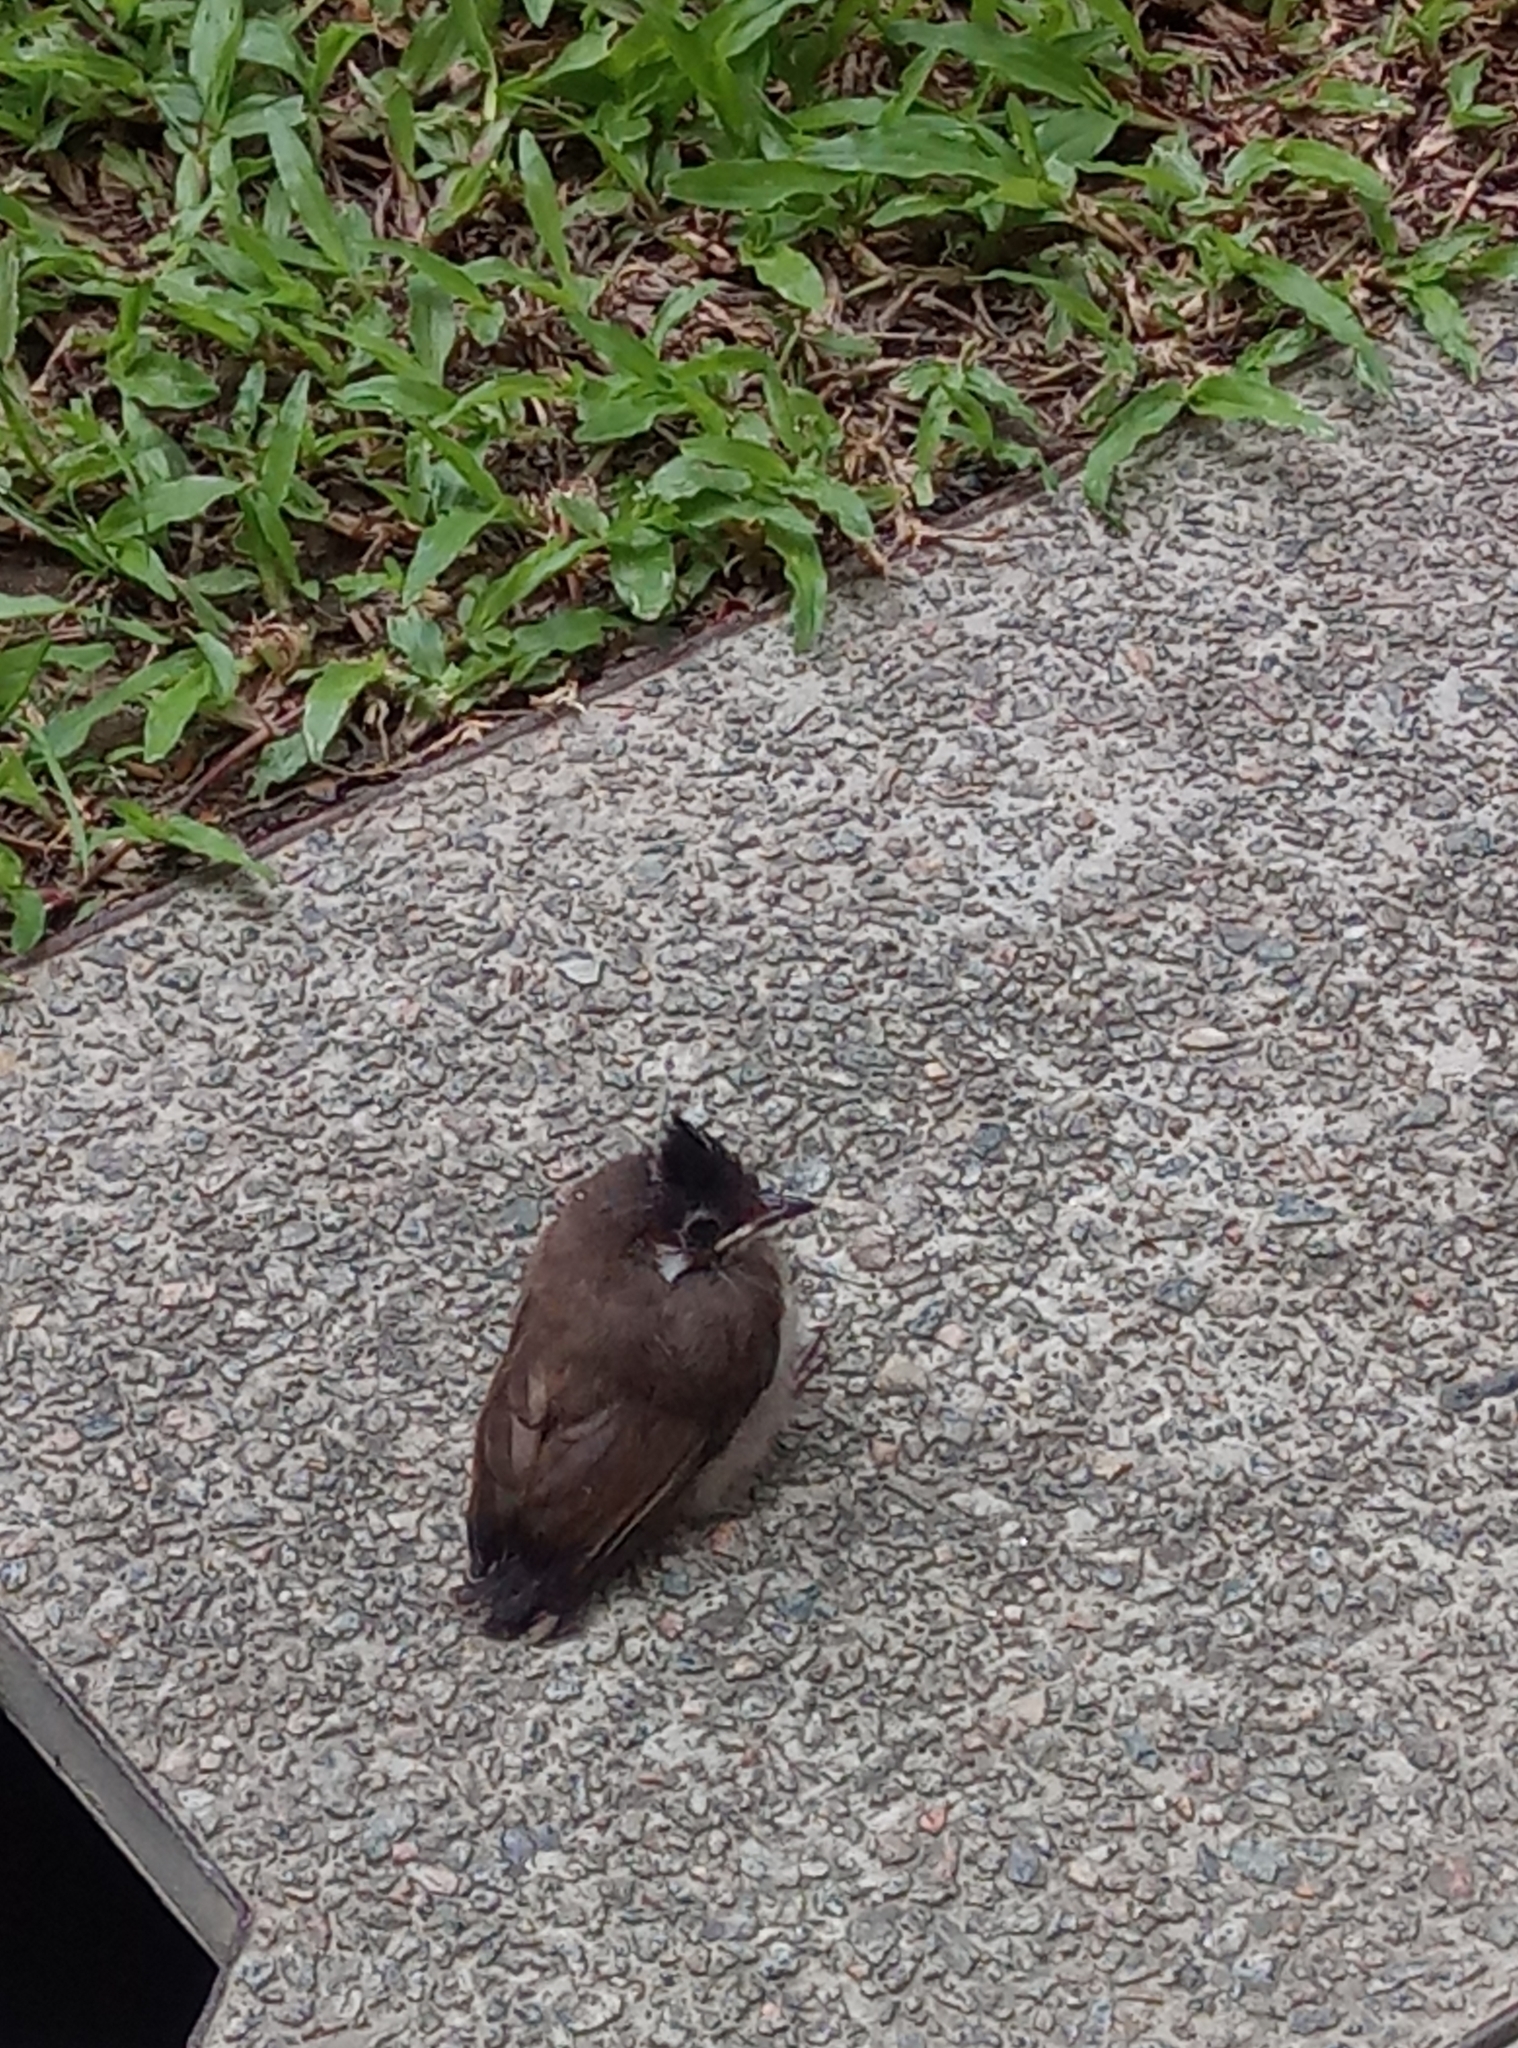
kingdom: Animalia
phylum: Chordata
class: Aves
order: Passeriformes
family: Pycnonotidae
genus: Pycnonotus
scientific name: Pycnonotus jocosus
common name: Red-whiskered bulbul
